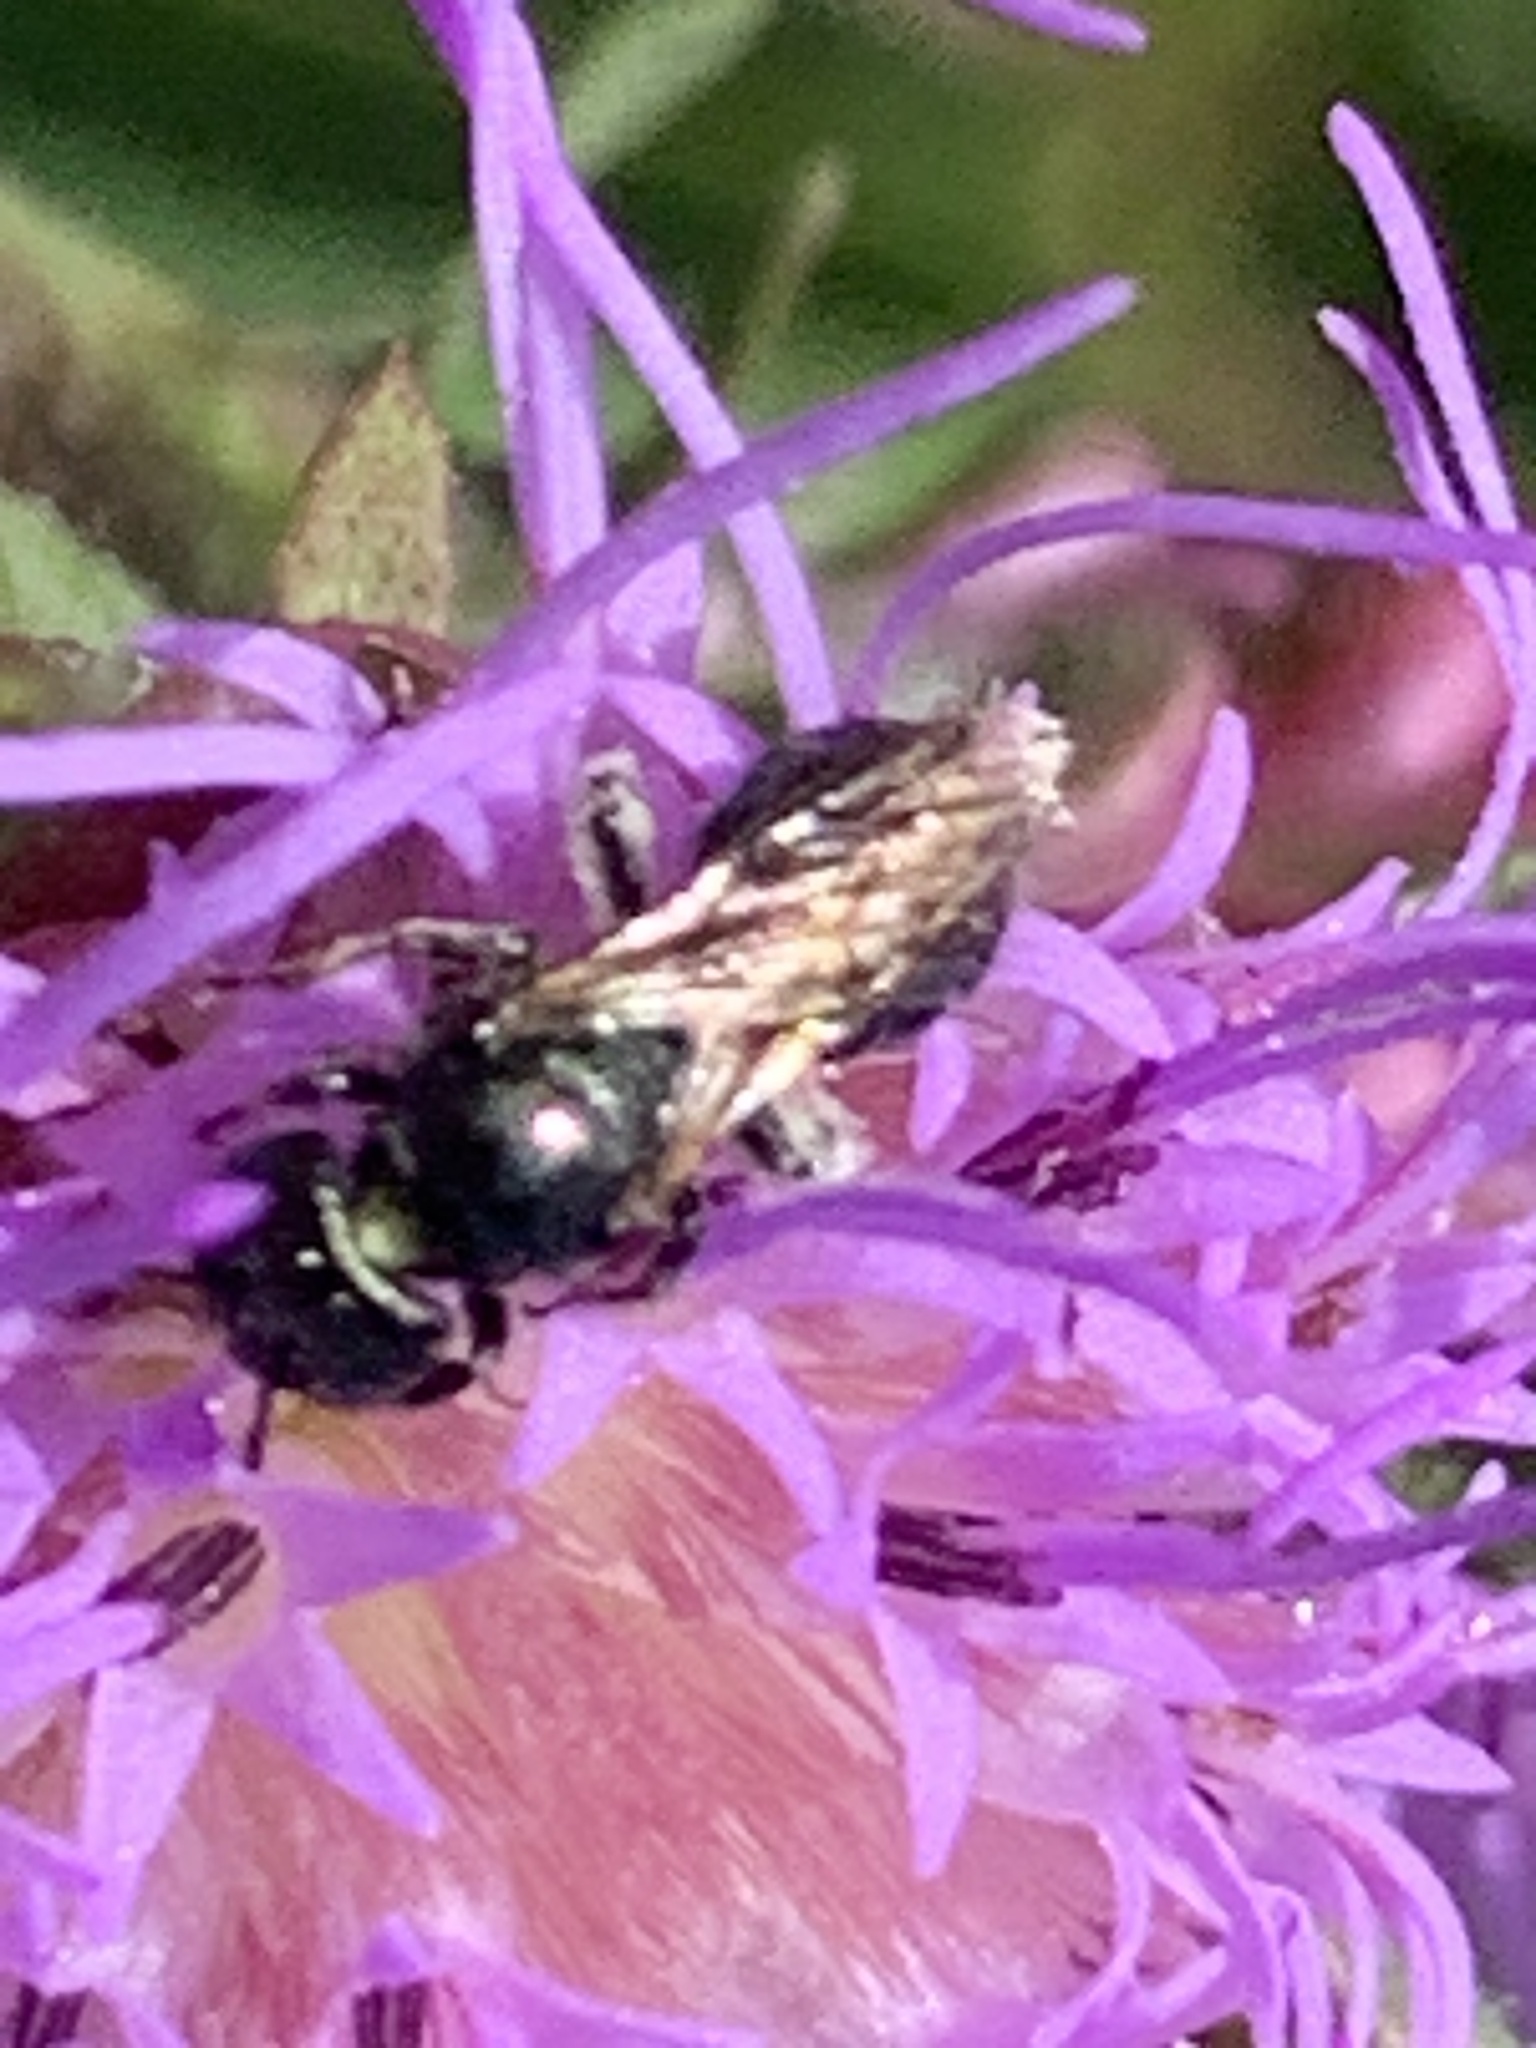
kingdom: Animalia
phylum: Arthropoda
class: Insecta
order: Hymenoptera
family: Apidae
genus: Zadontomerus
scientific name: Zadontomerus
